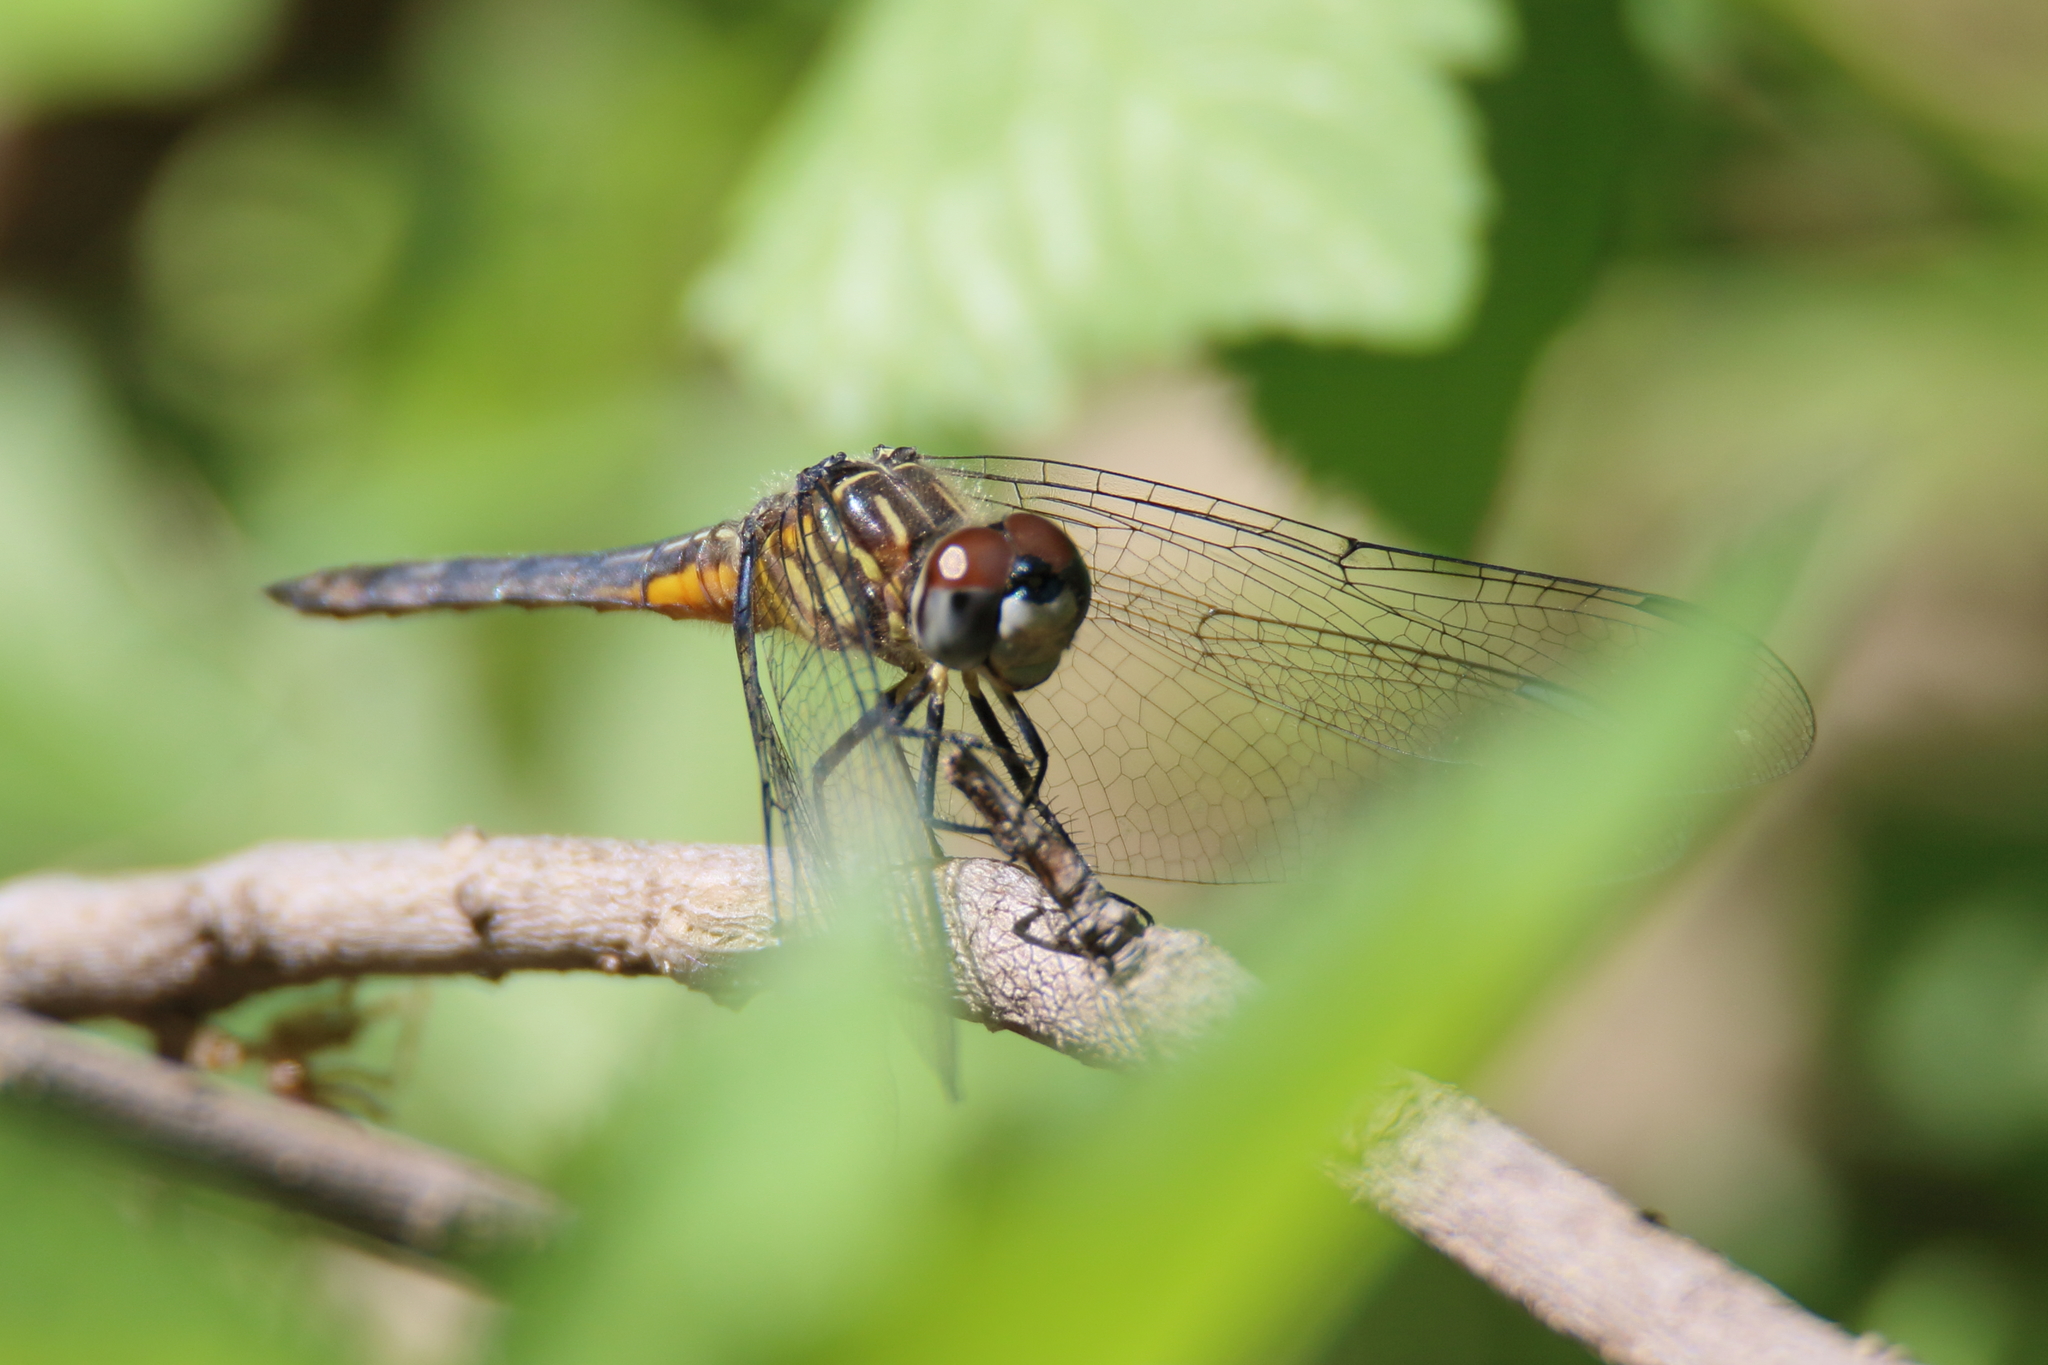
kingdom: Animalia
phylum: Arthropoda
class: Insecta
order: Odonata
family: Libellulidae
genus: Pachydiplax
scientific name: Pachydiplax longipennis
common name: Blue dasher
